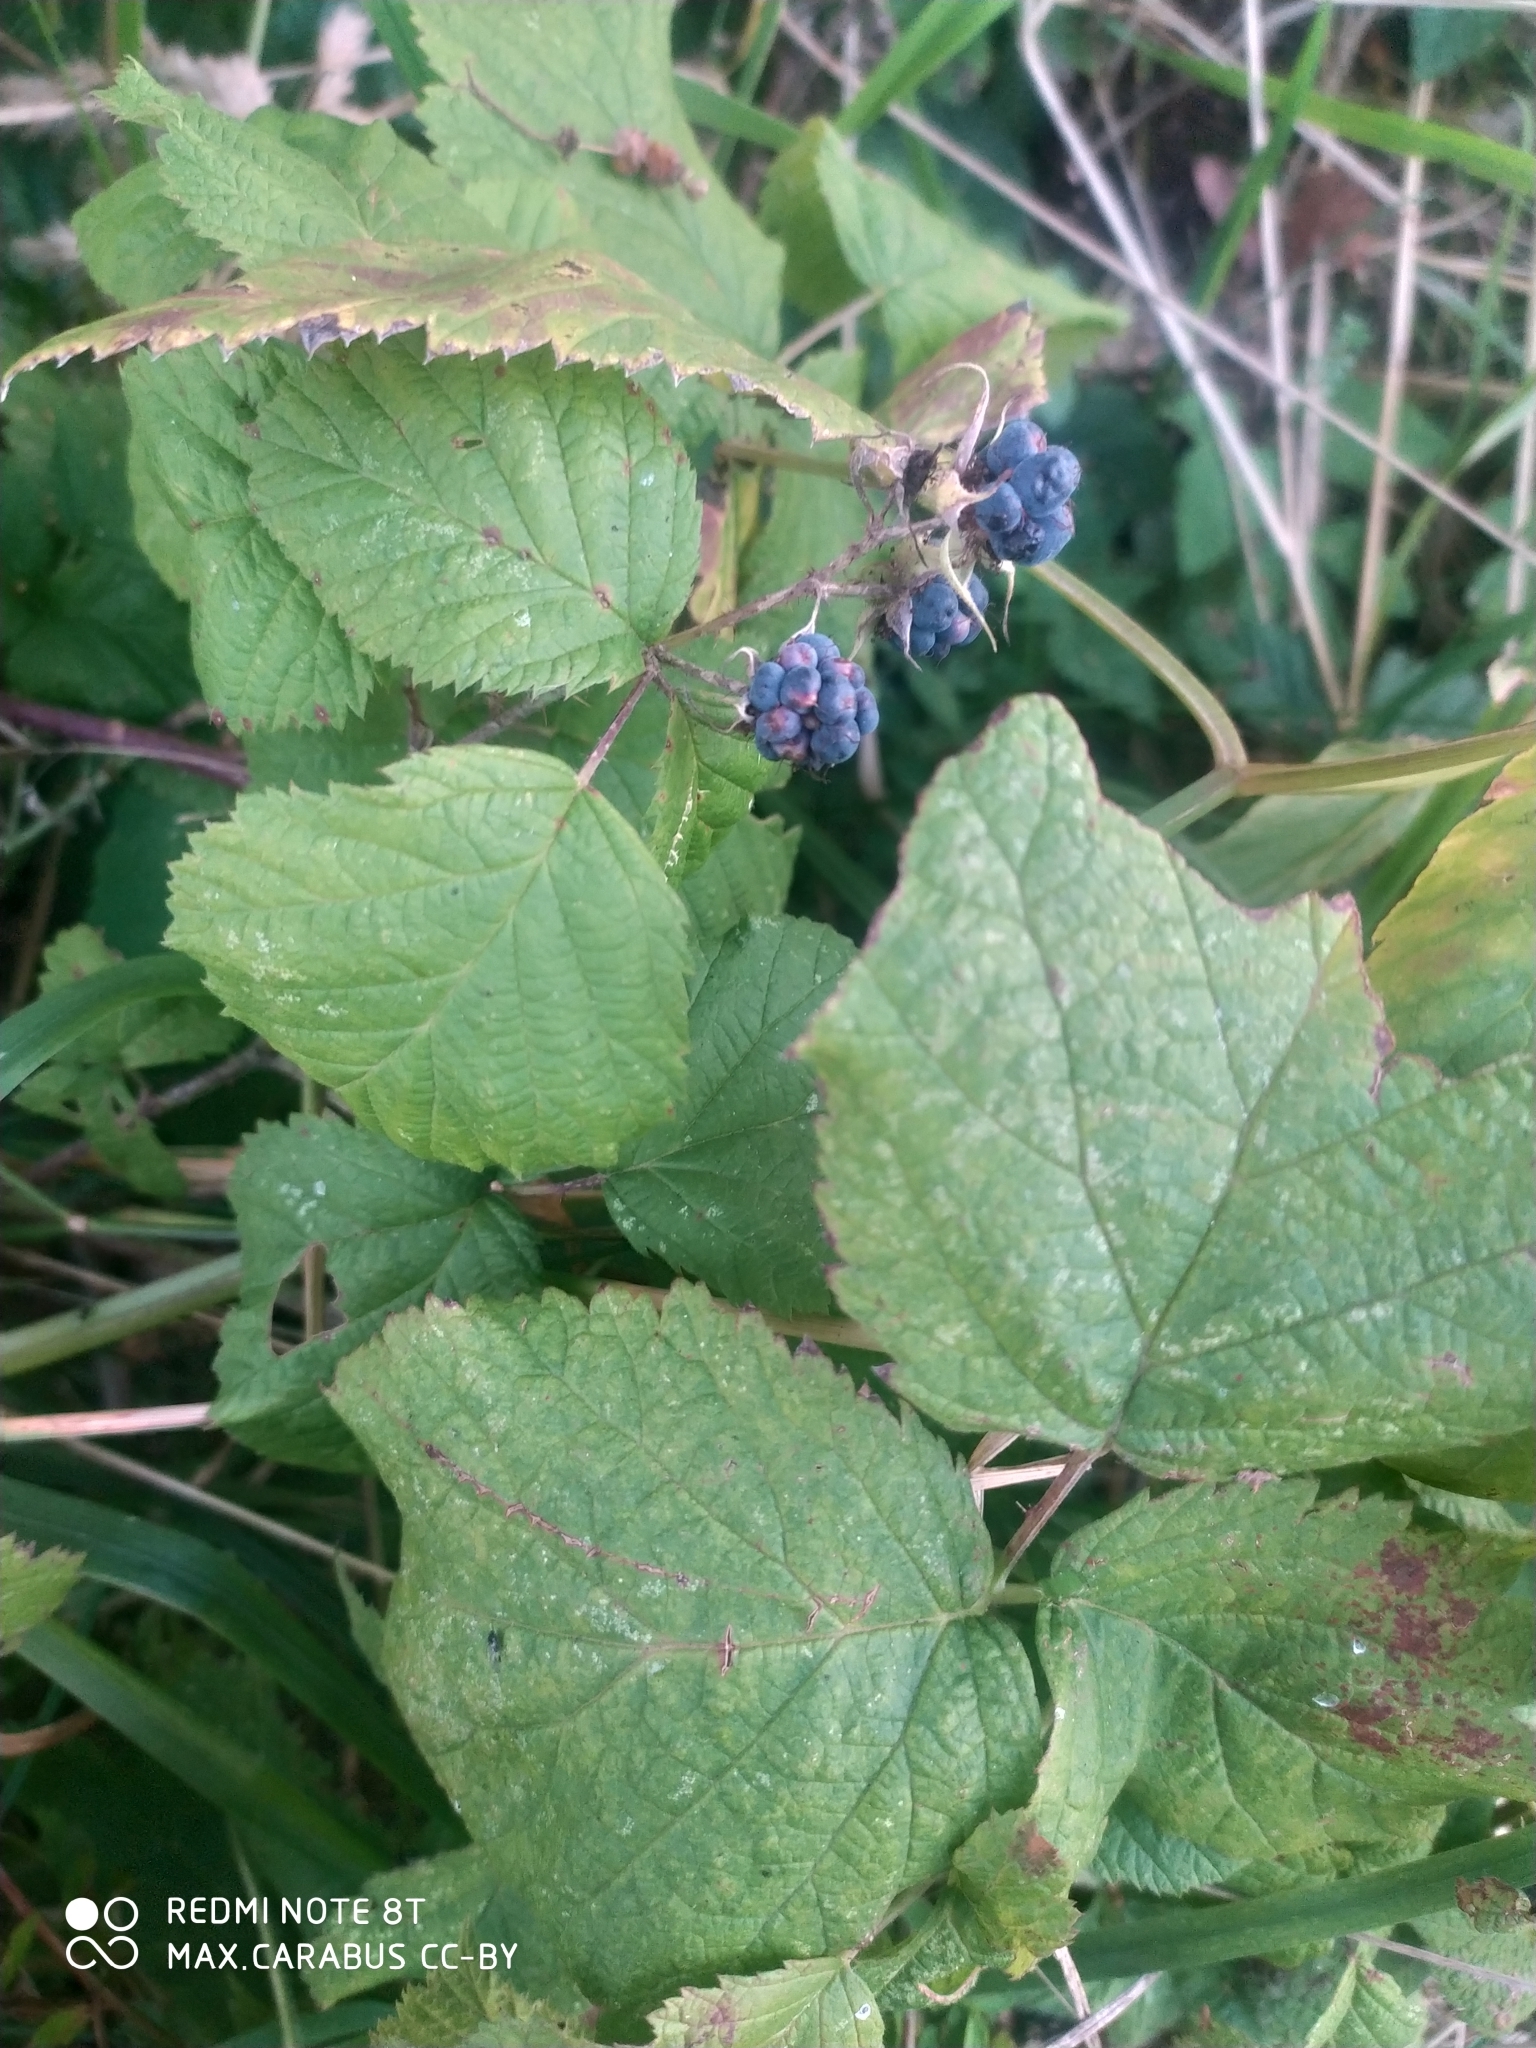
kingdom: Plantae
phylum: Tracheophyta
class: Magnoliopsida
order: Rosales
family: Rosaceae
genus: Rubus
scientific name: Rubus caesius
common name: Dewberry
